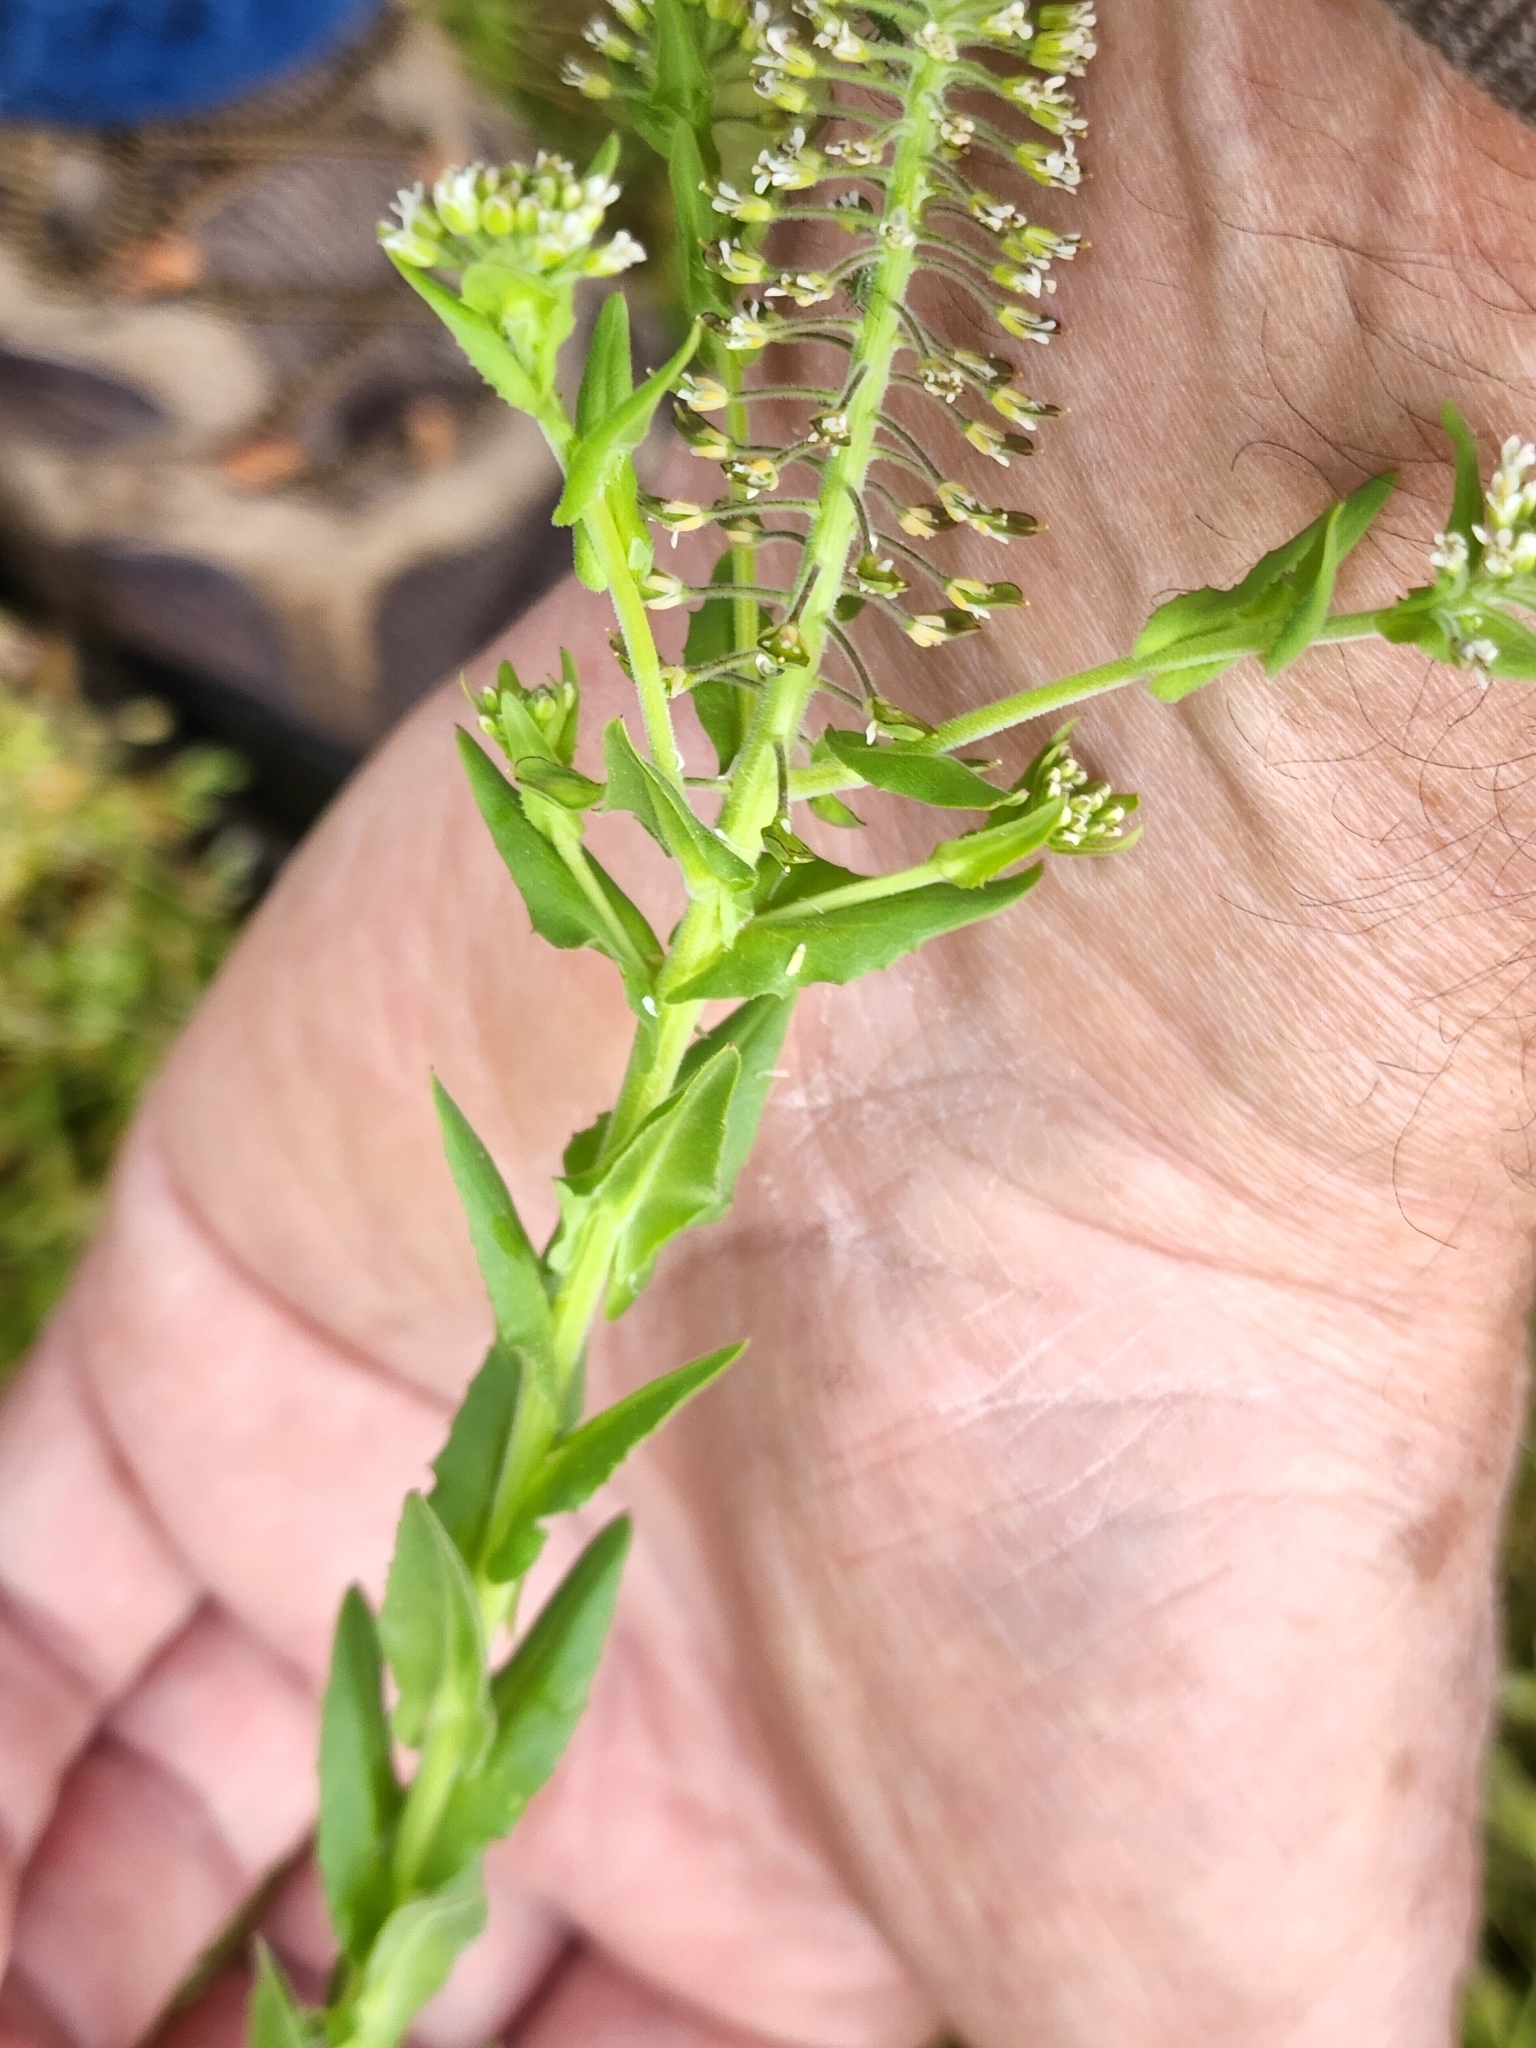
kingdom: Plantae
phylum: Tracheophyta
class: Magnoliopsida
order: Brassicales
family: Brassicaceae
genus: Lepidium
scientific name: Lepidium campestre
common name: Field pepperwort
